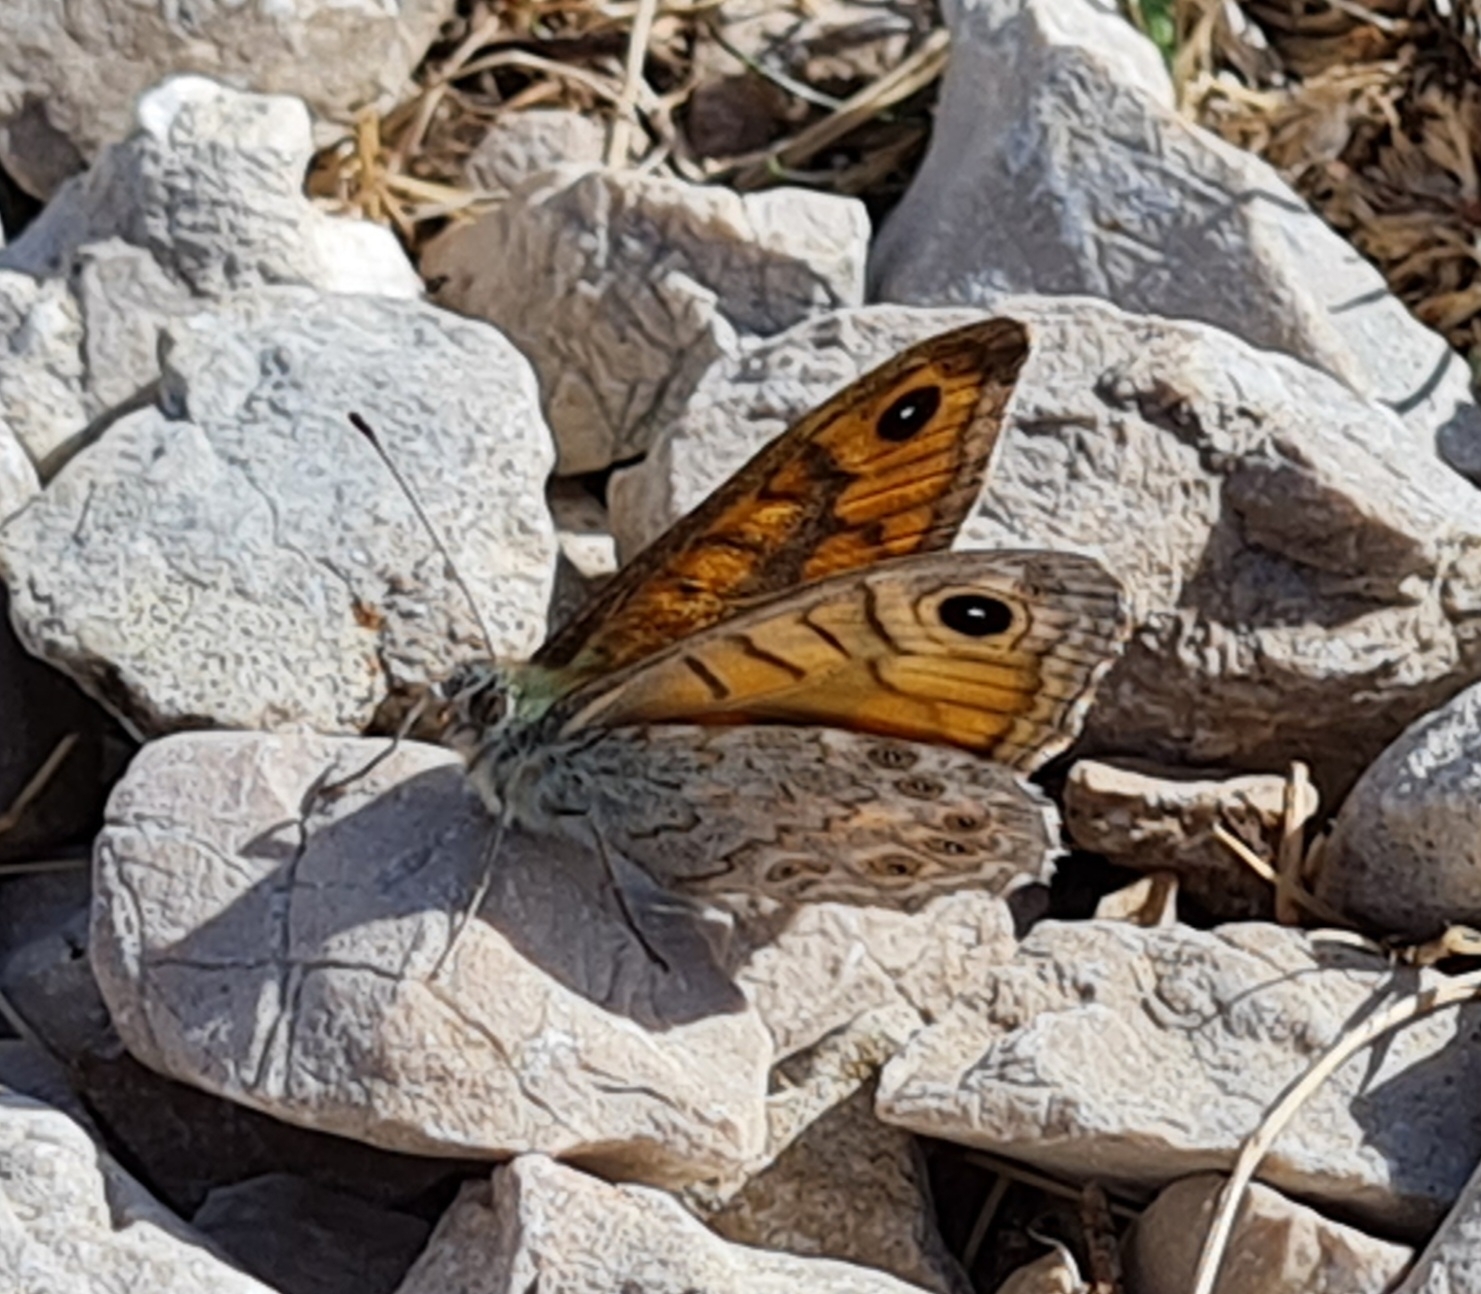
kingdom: Animalia
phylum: Arthropoda
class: Insecta
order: Lepidoptera
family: Nymphalidae
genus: Pararge
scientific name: Pararge Lasiommata megera
